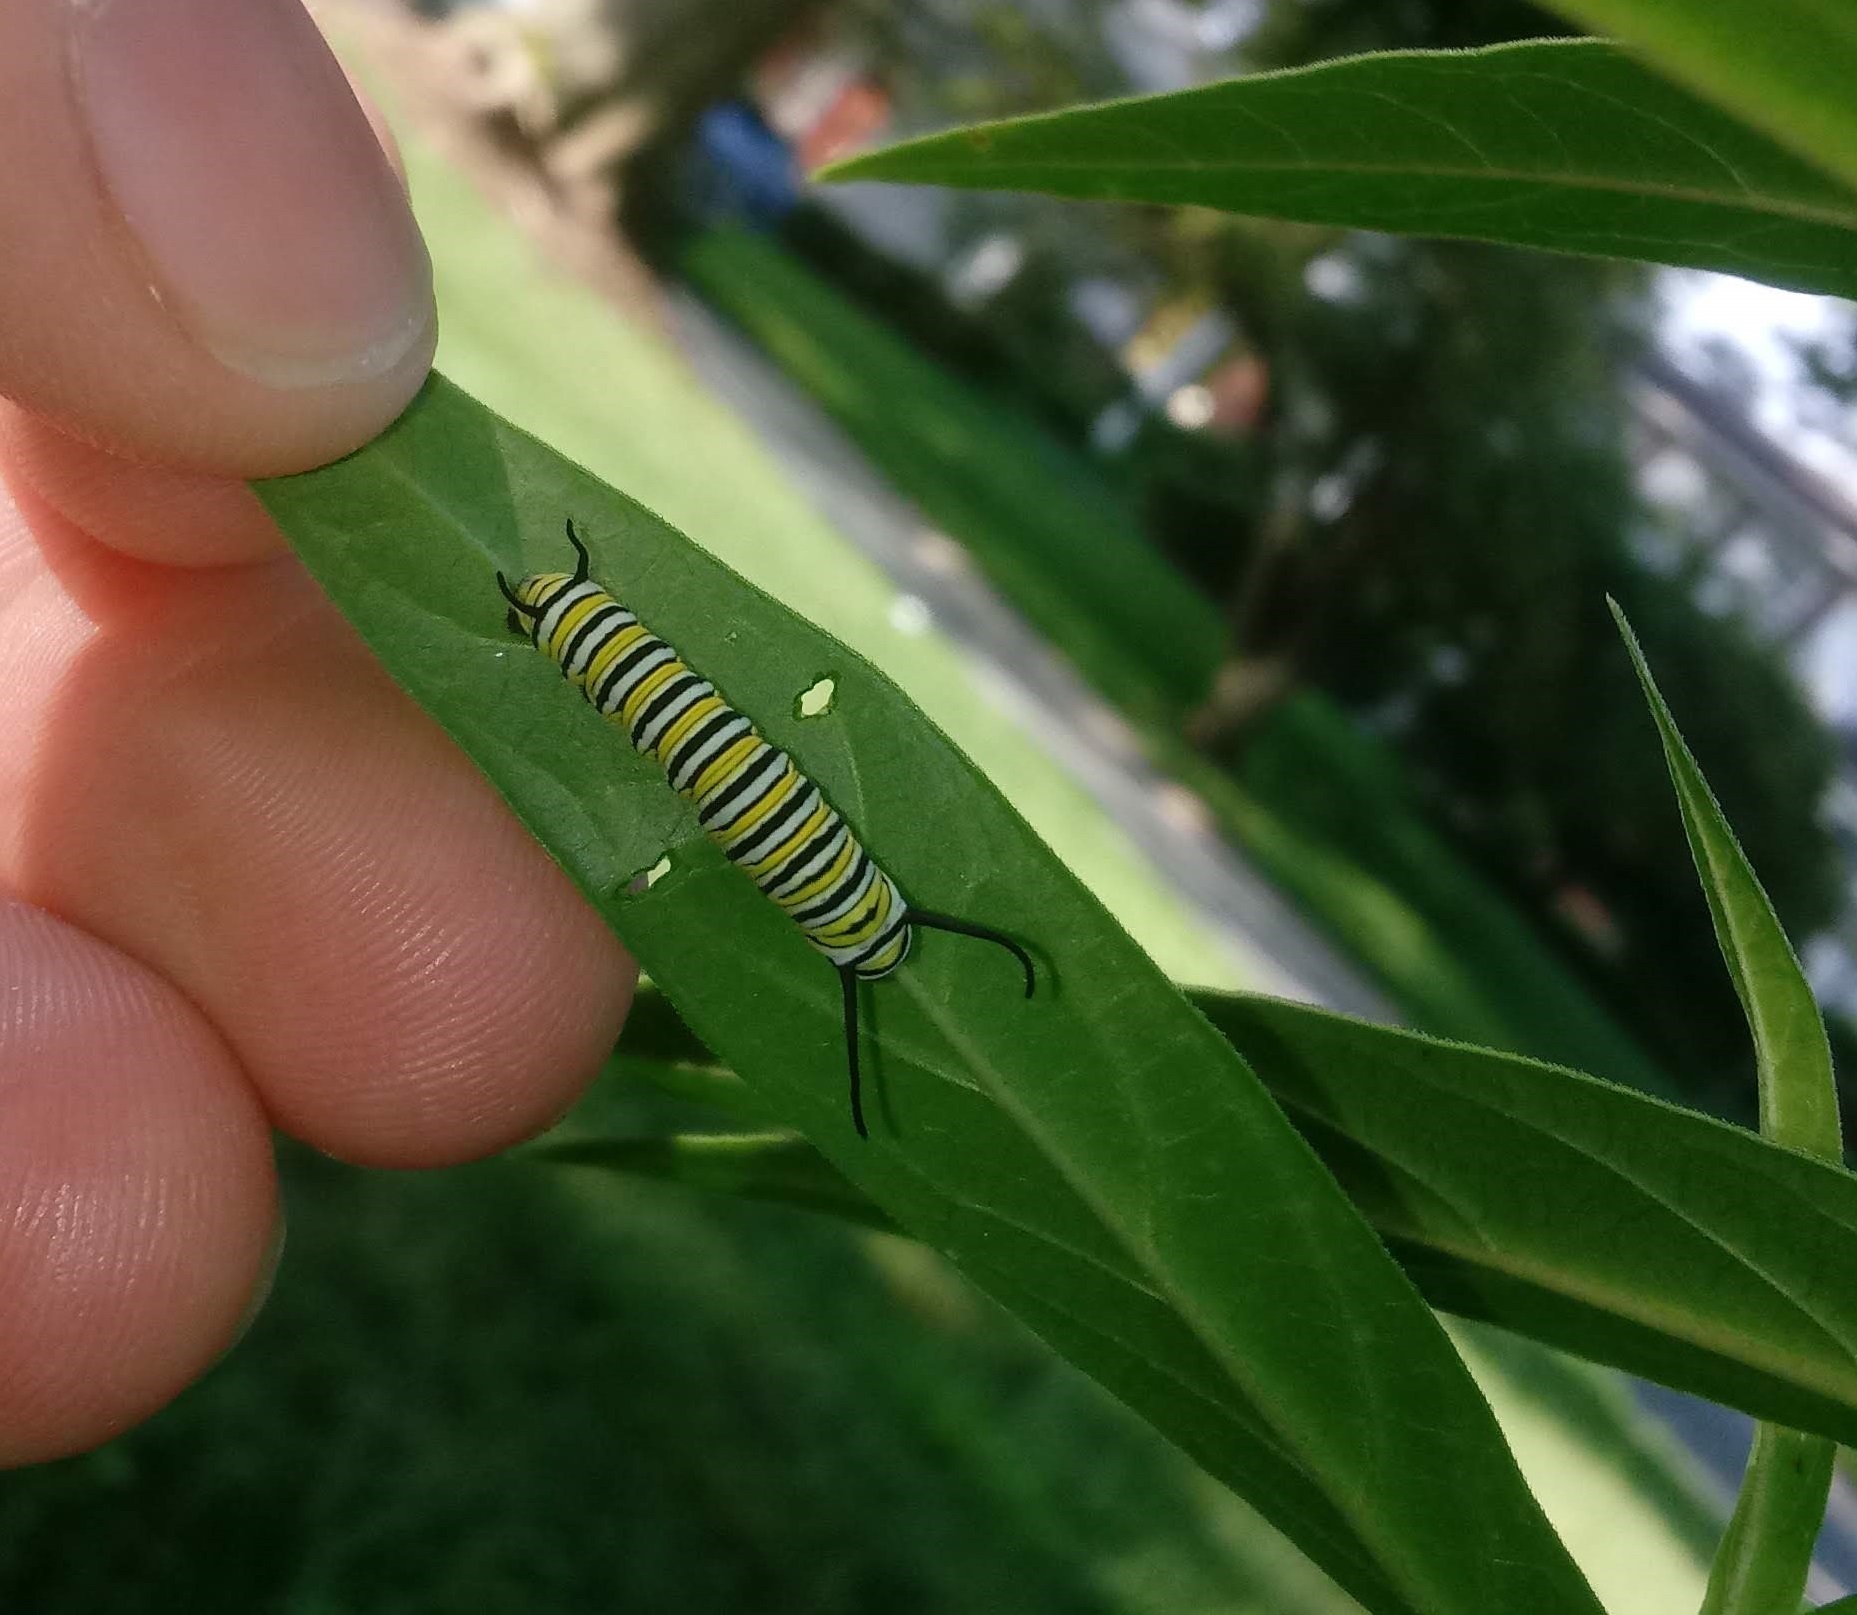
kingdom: Animalia
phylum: Arthropoda
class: Insecta
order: Lepidoptera
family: Nymphalidae
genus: Danaus
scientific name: Danaus plexippus
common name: Monarch
